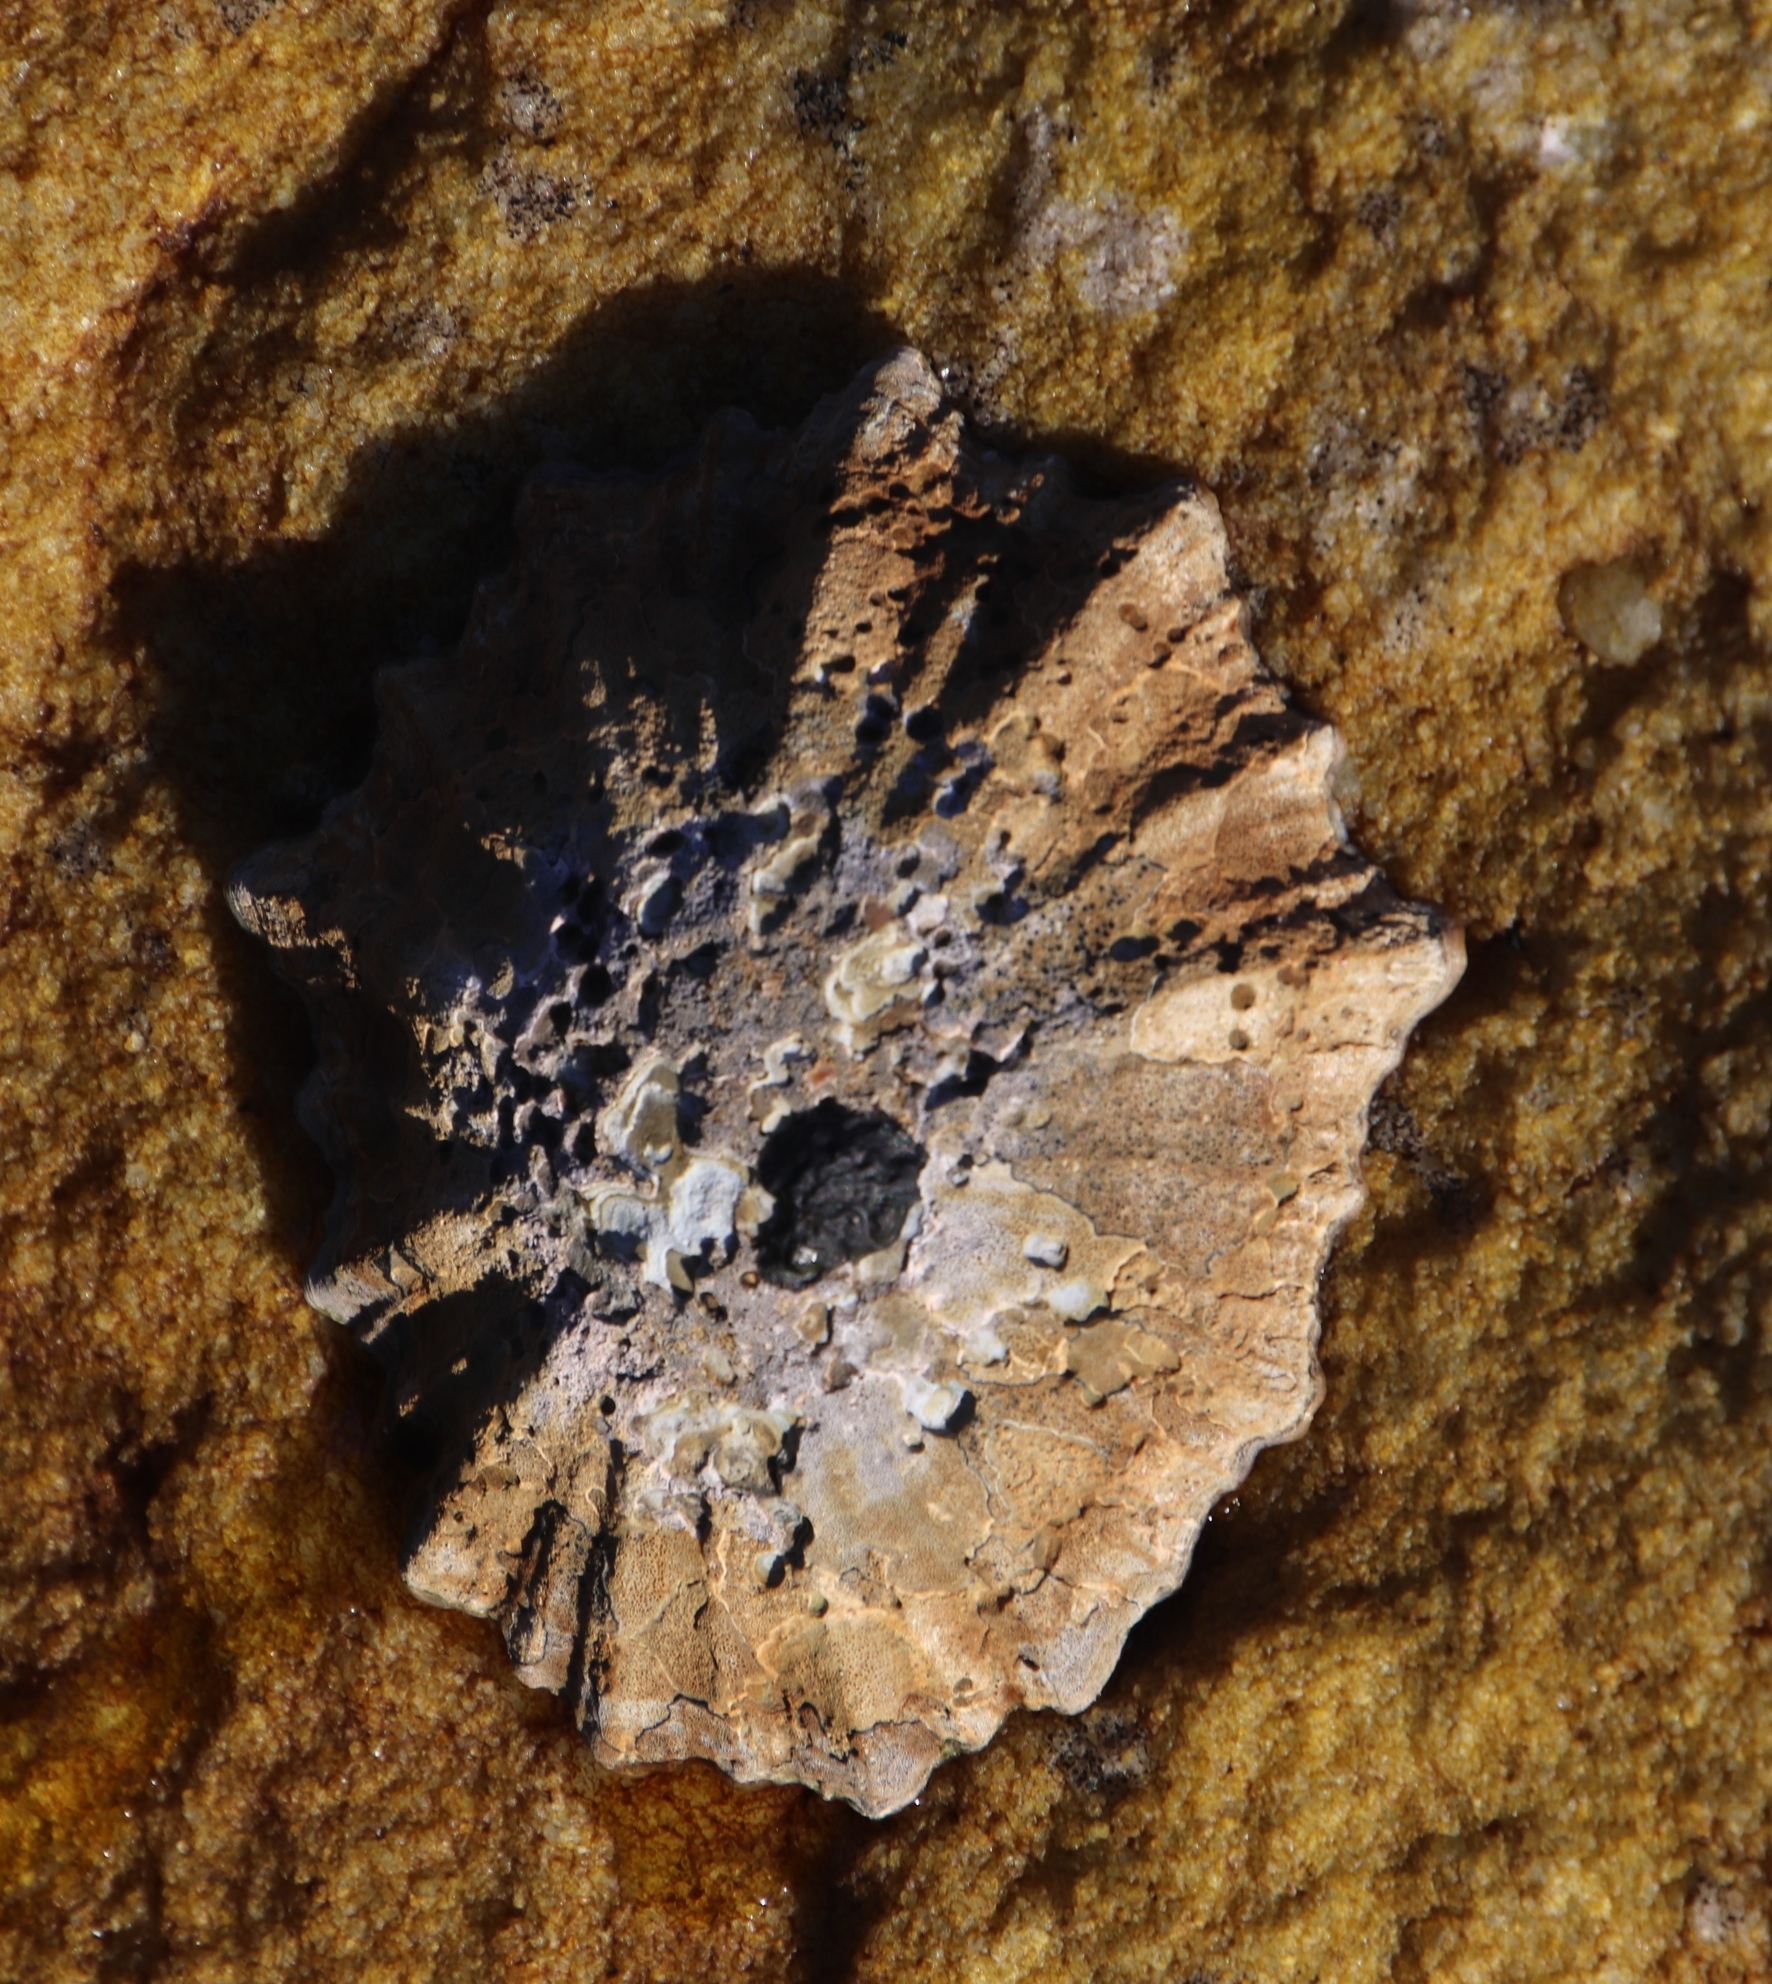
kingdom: Animalia
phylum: Mollusca
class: Gastropoda
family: Patellidae
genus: Scutellastra
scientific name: Scutellastra longicosta
